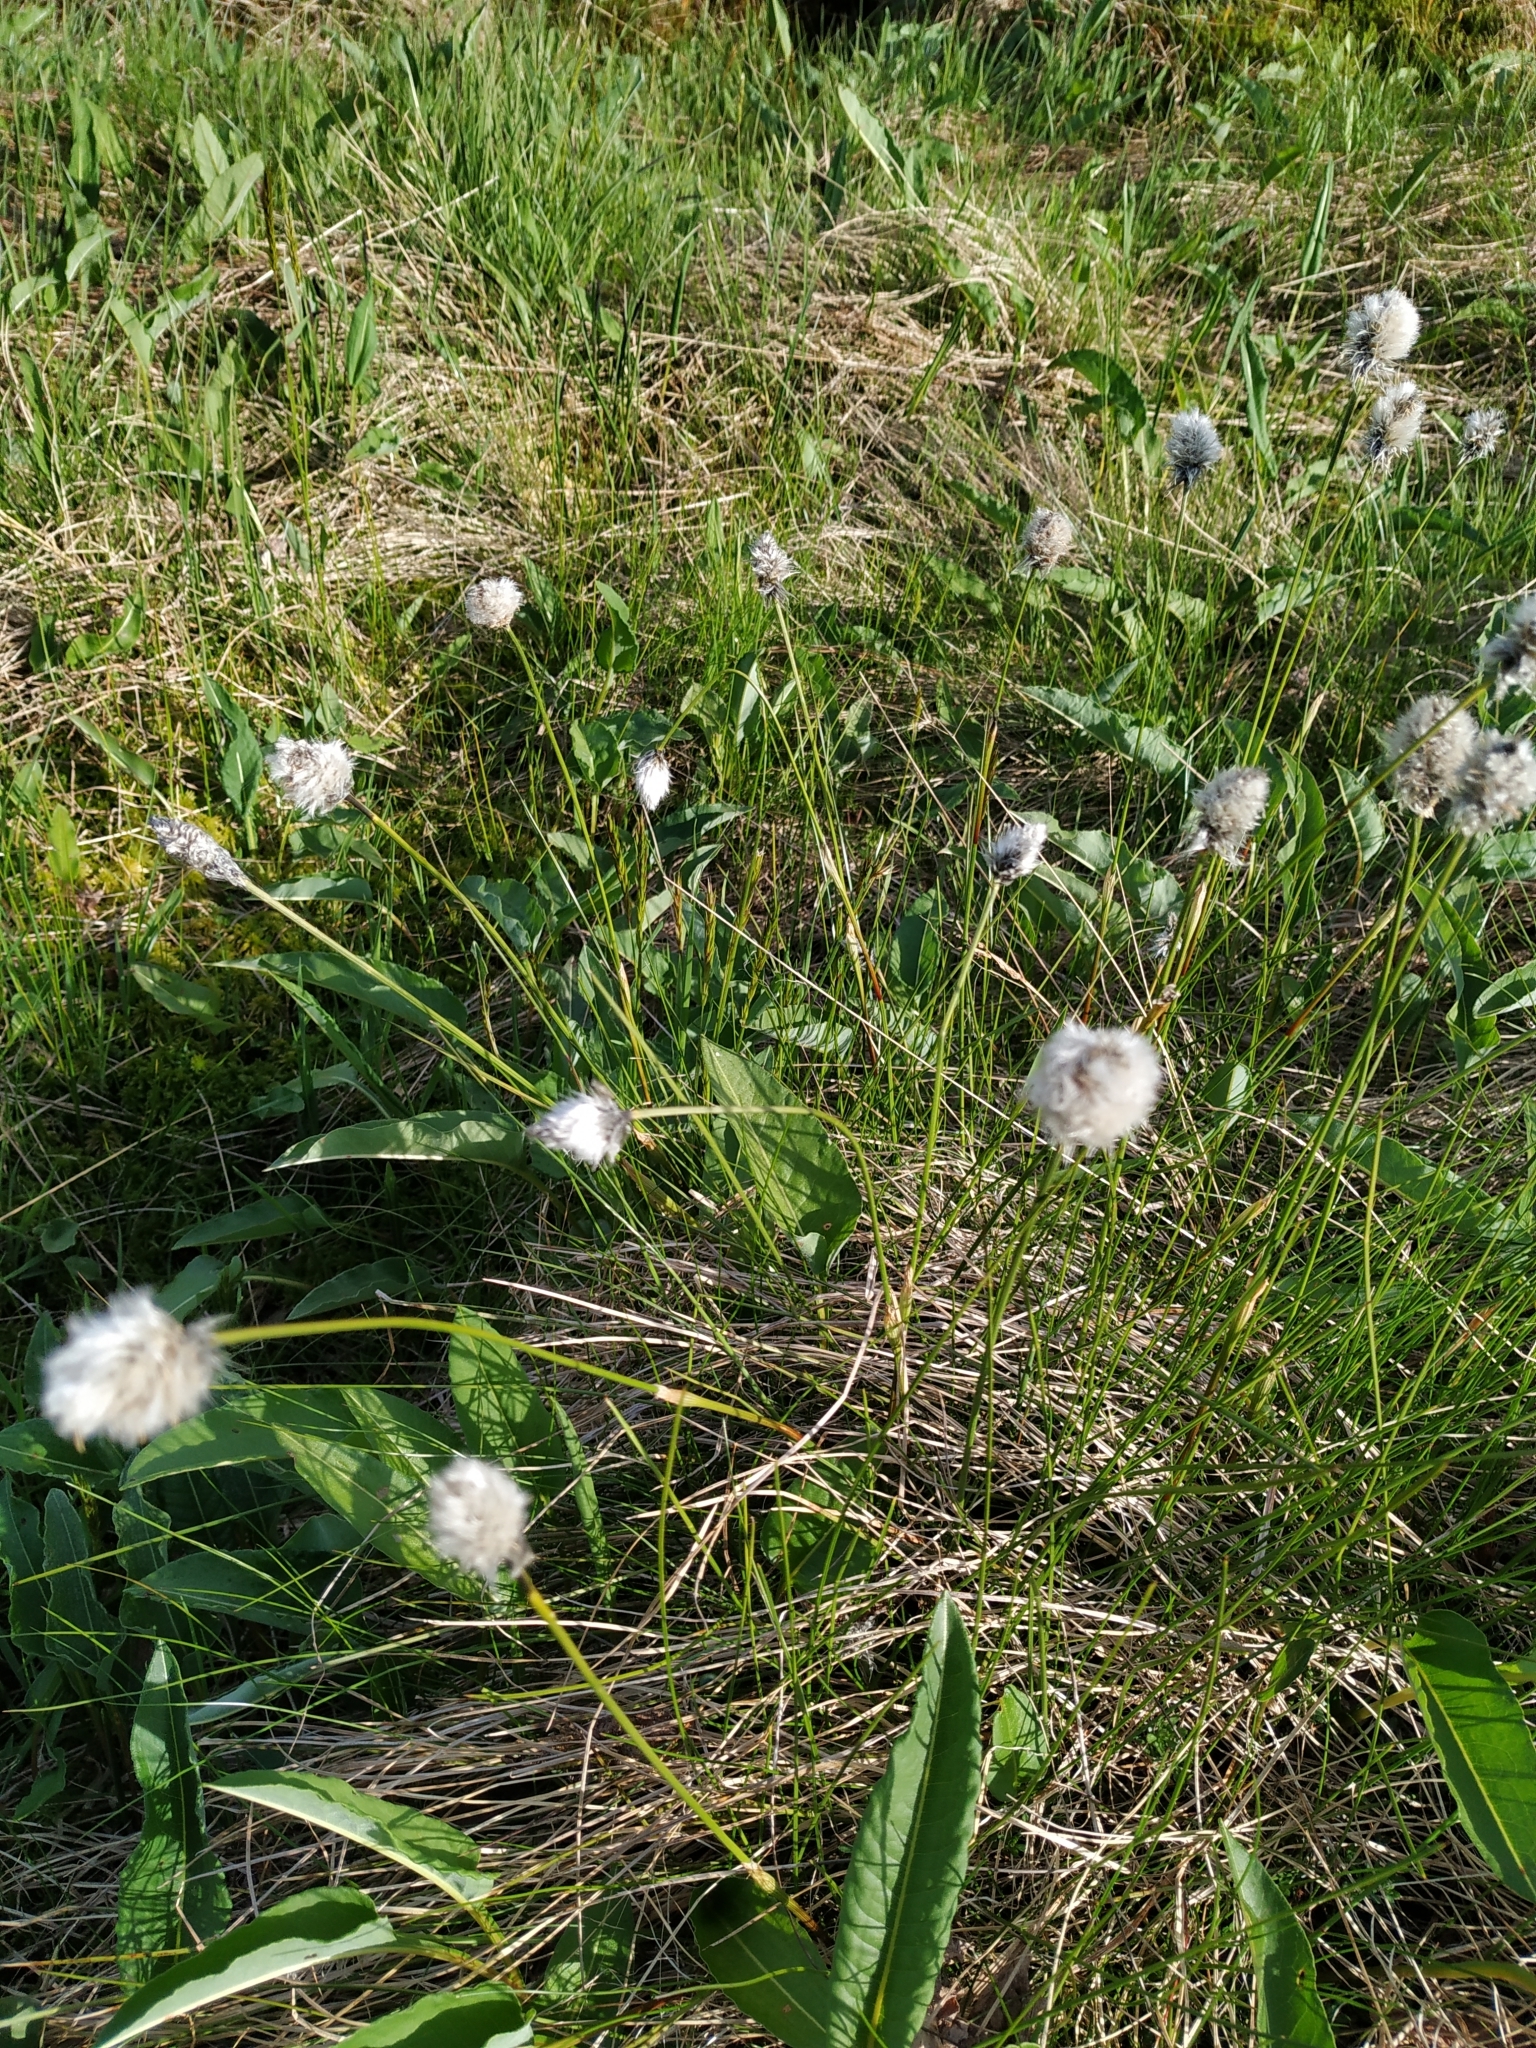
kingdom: Plantae
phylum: Tracheophyta
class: Liliopsida
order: Poales
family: Cyperaceae
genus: Eriophorum
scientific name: Eriophorum vaginatum
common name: Hare's-tail cottongrass
